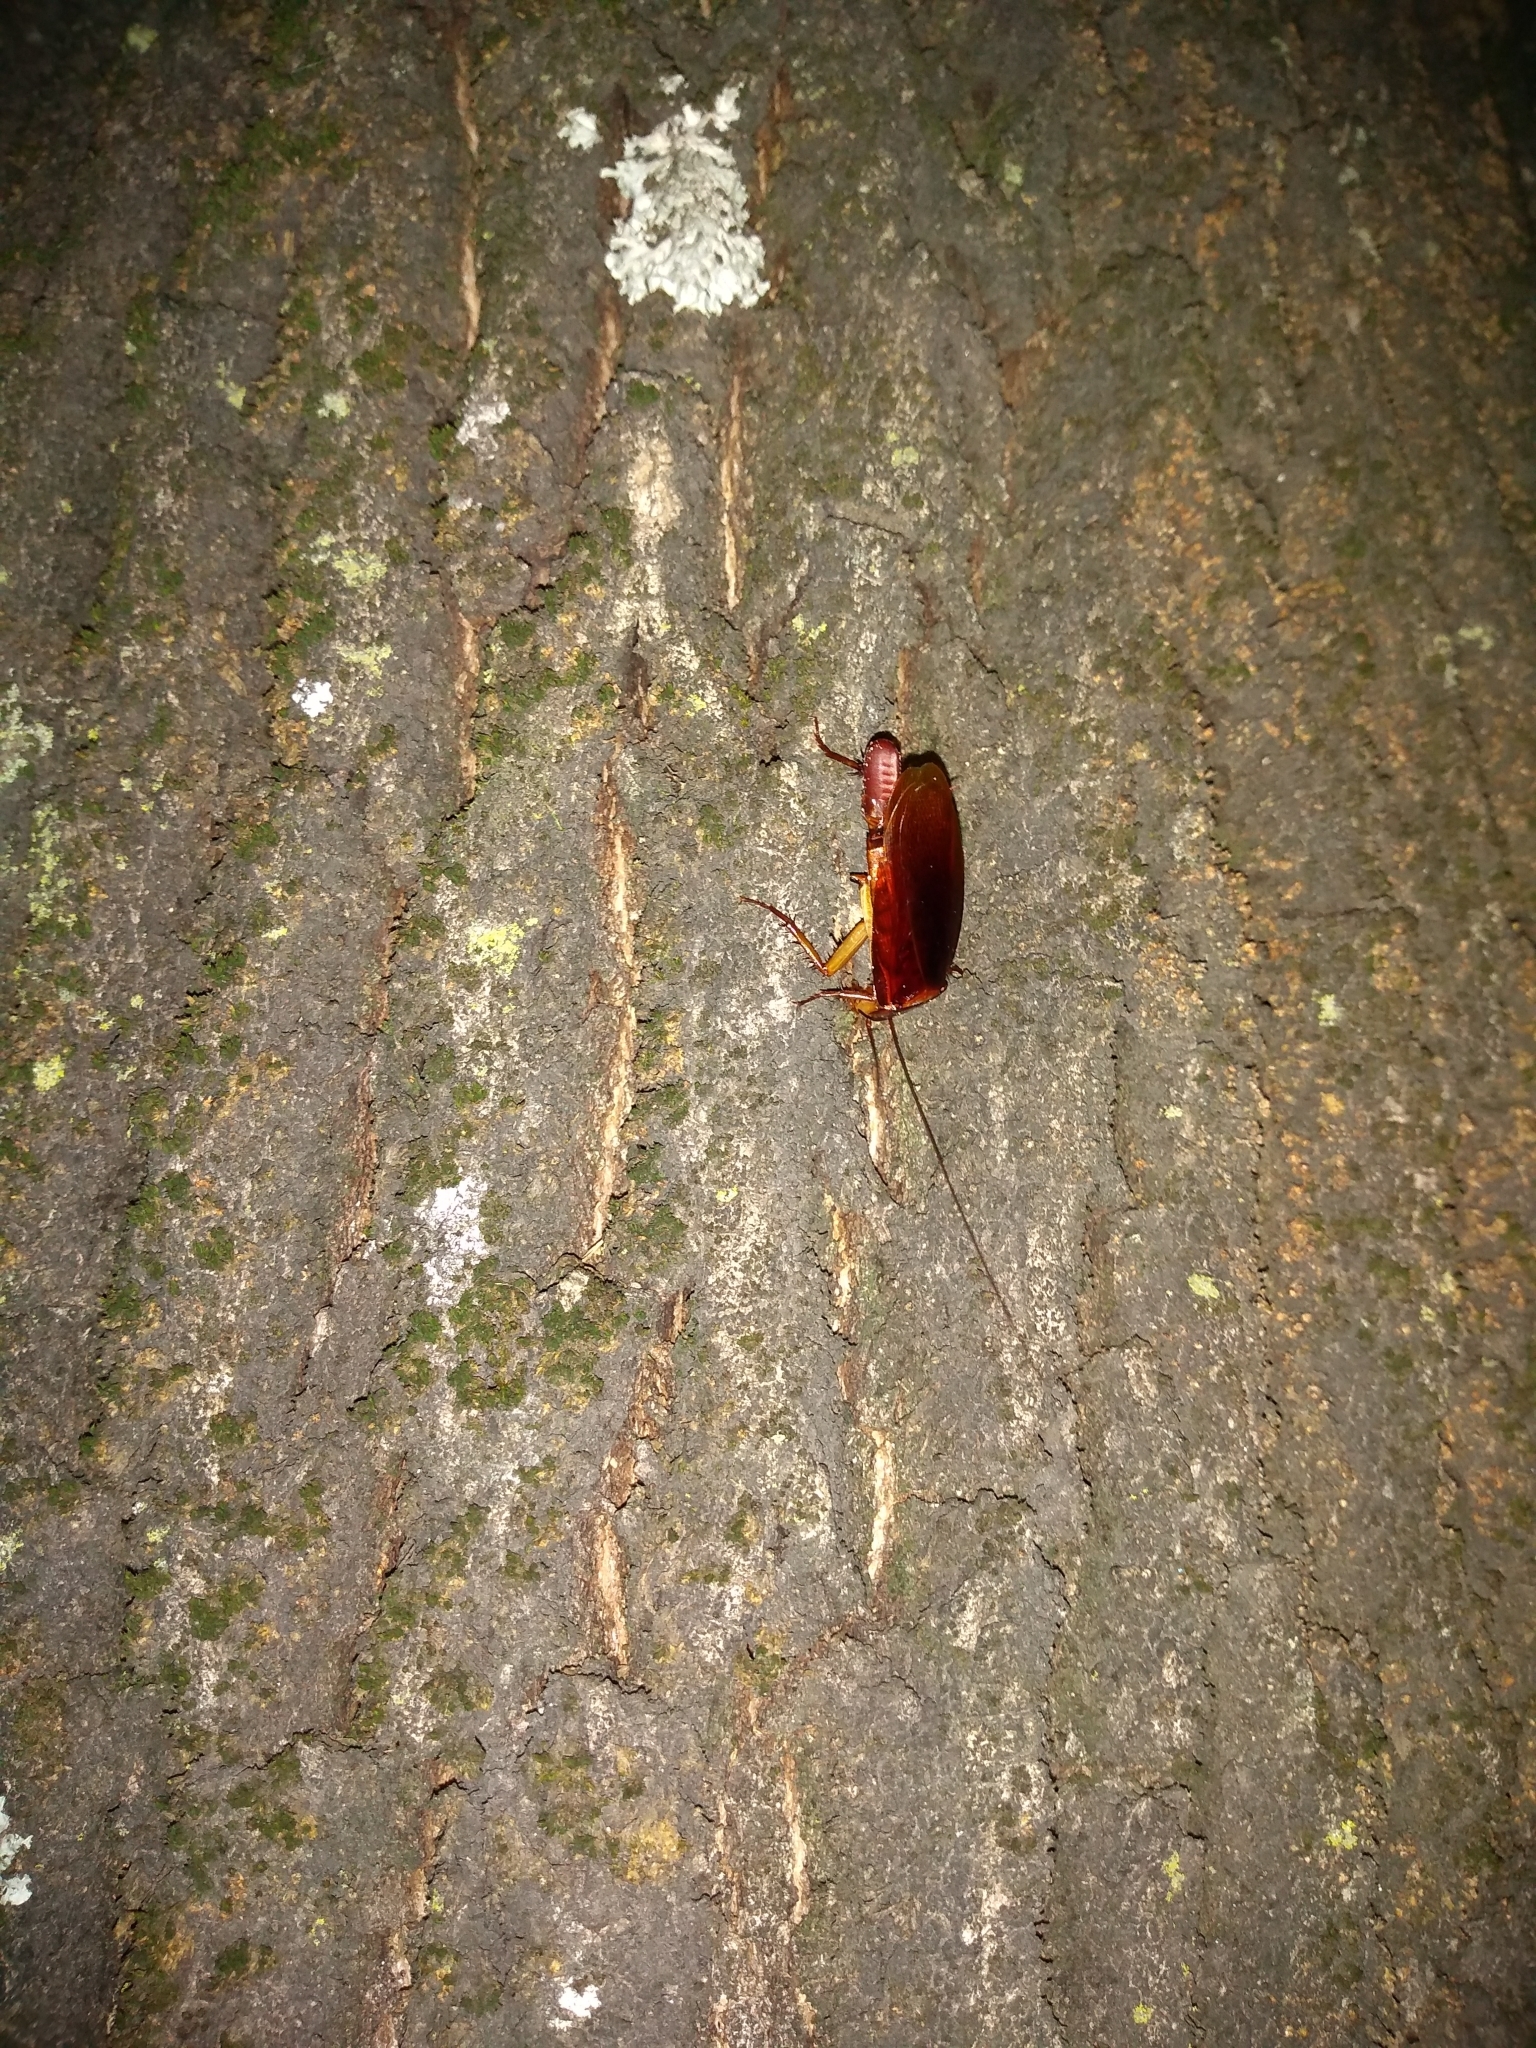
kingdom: Animalia
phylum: Arthropoda
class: Insecta
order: Blattodea
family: Blattidae
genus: Periplaneta
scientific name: Periplaneta americana
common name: American cockroach
